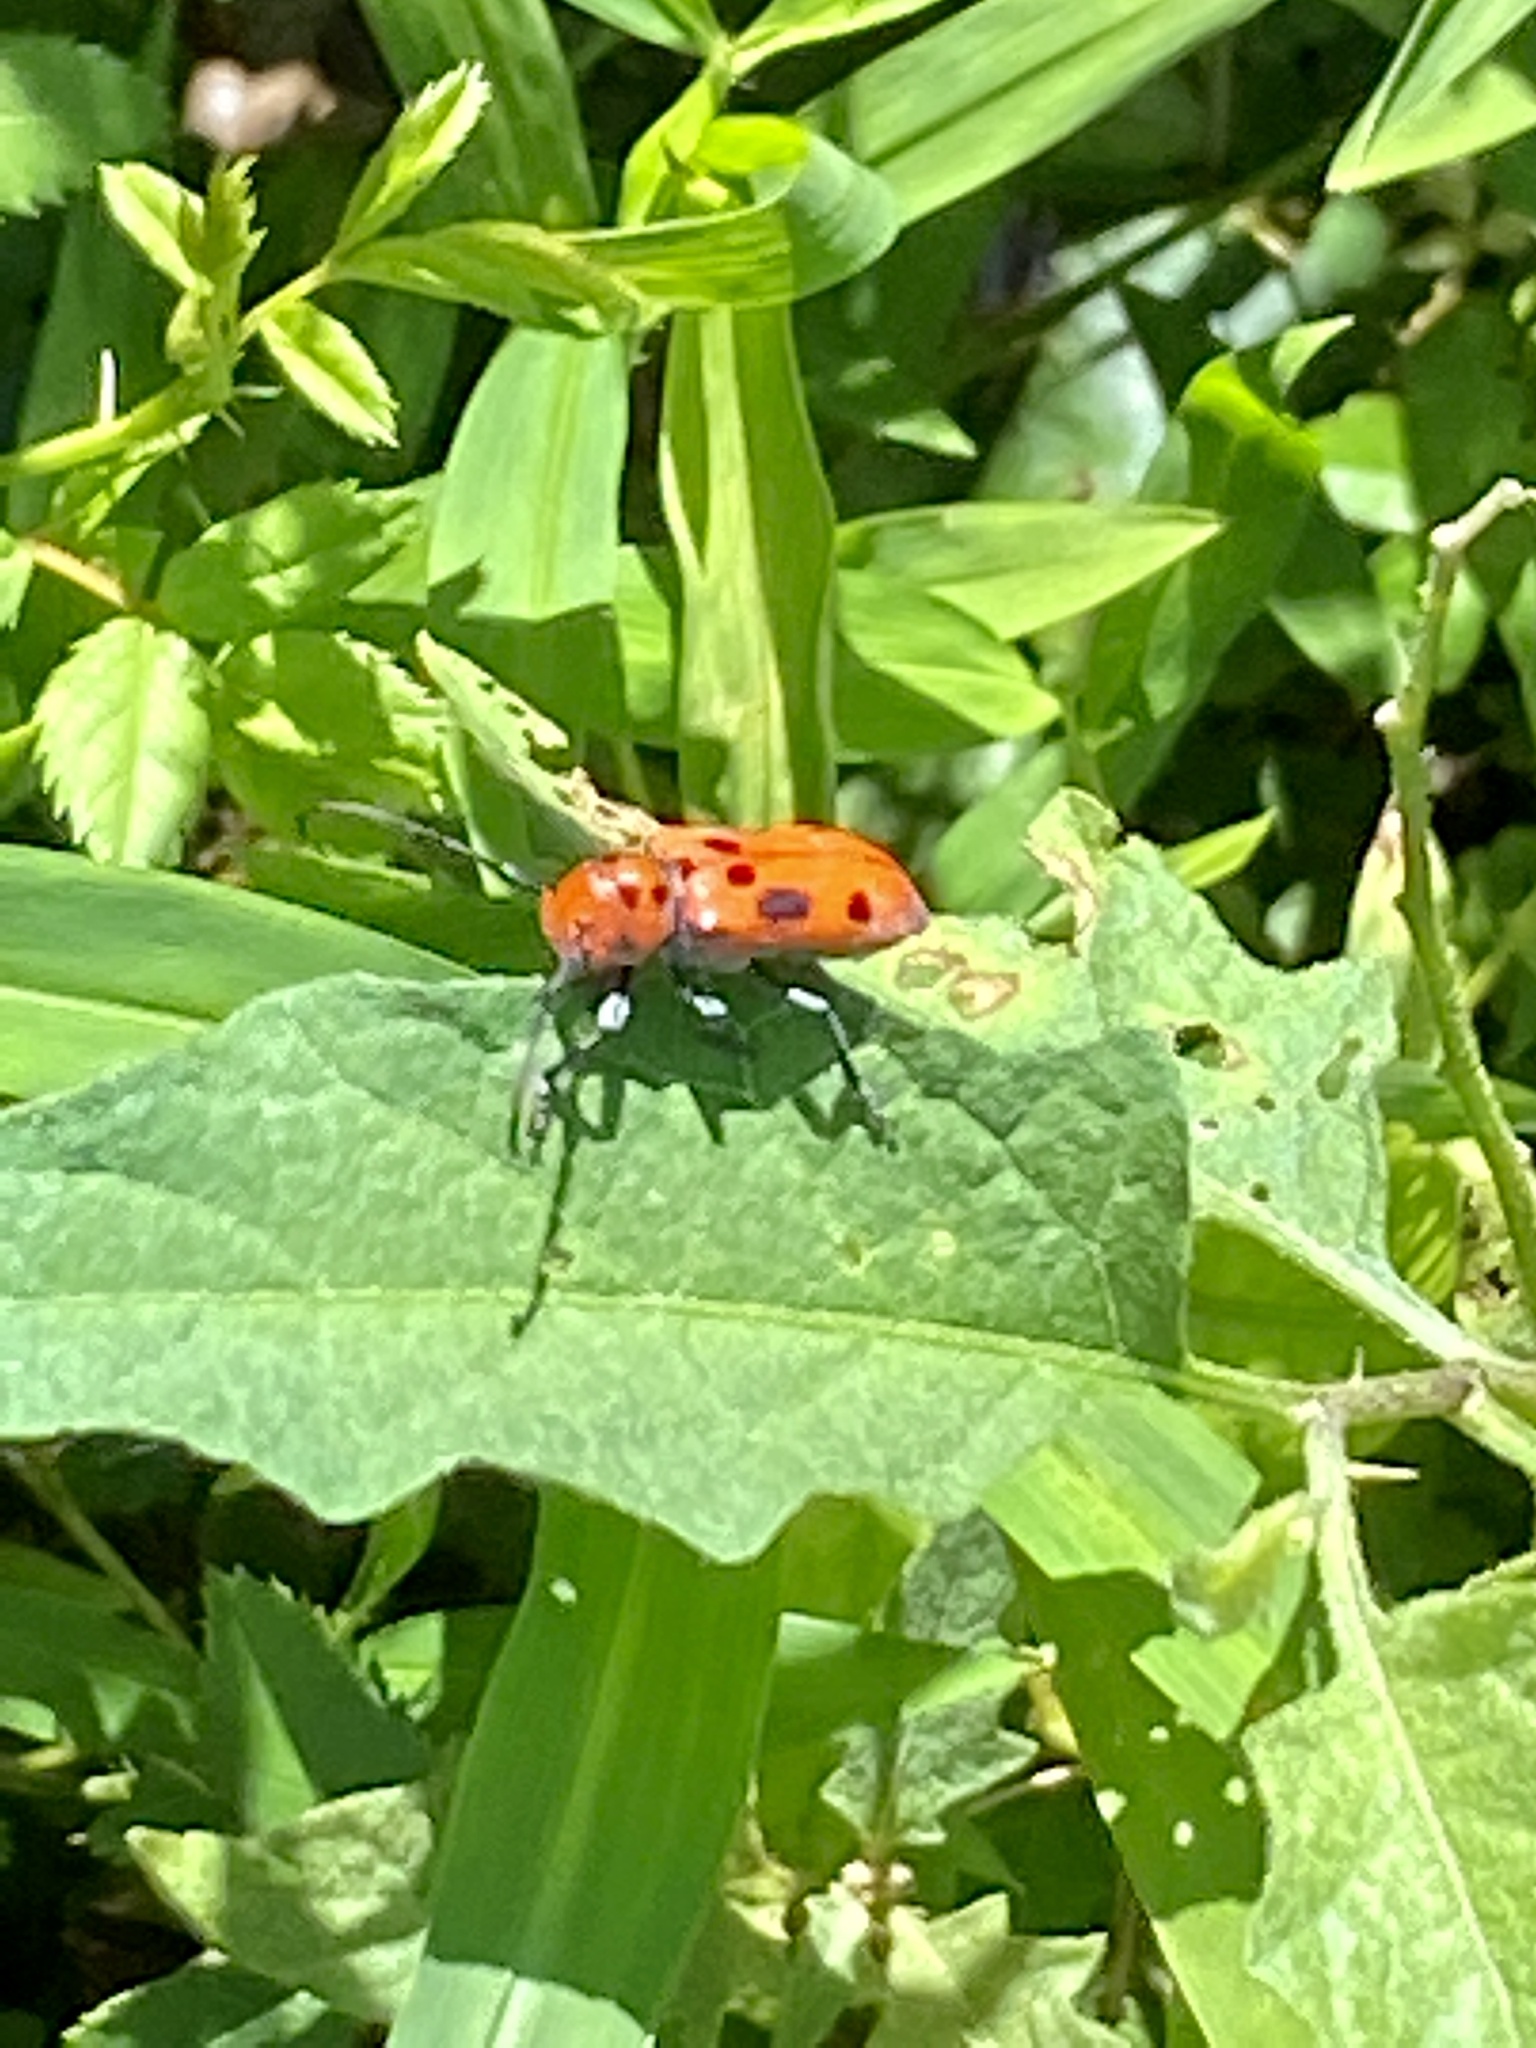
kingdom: Animalia
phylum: Arthropoda
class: Insecta
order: Coleoptera
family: Cerambycidae
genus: Tetraopes
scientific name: Tetraopes tetrophthalmus
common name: Red milkweed beetle
